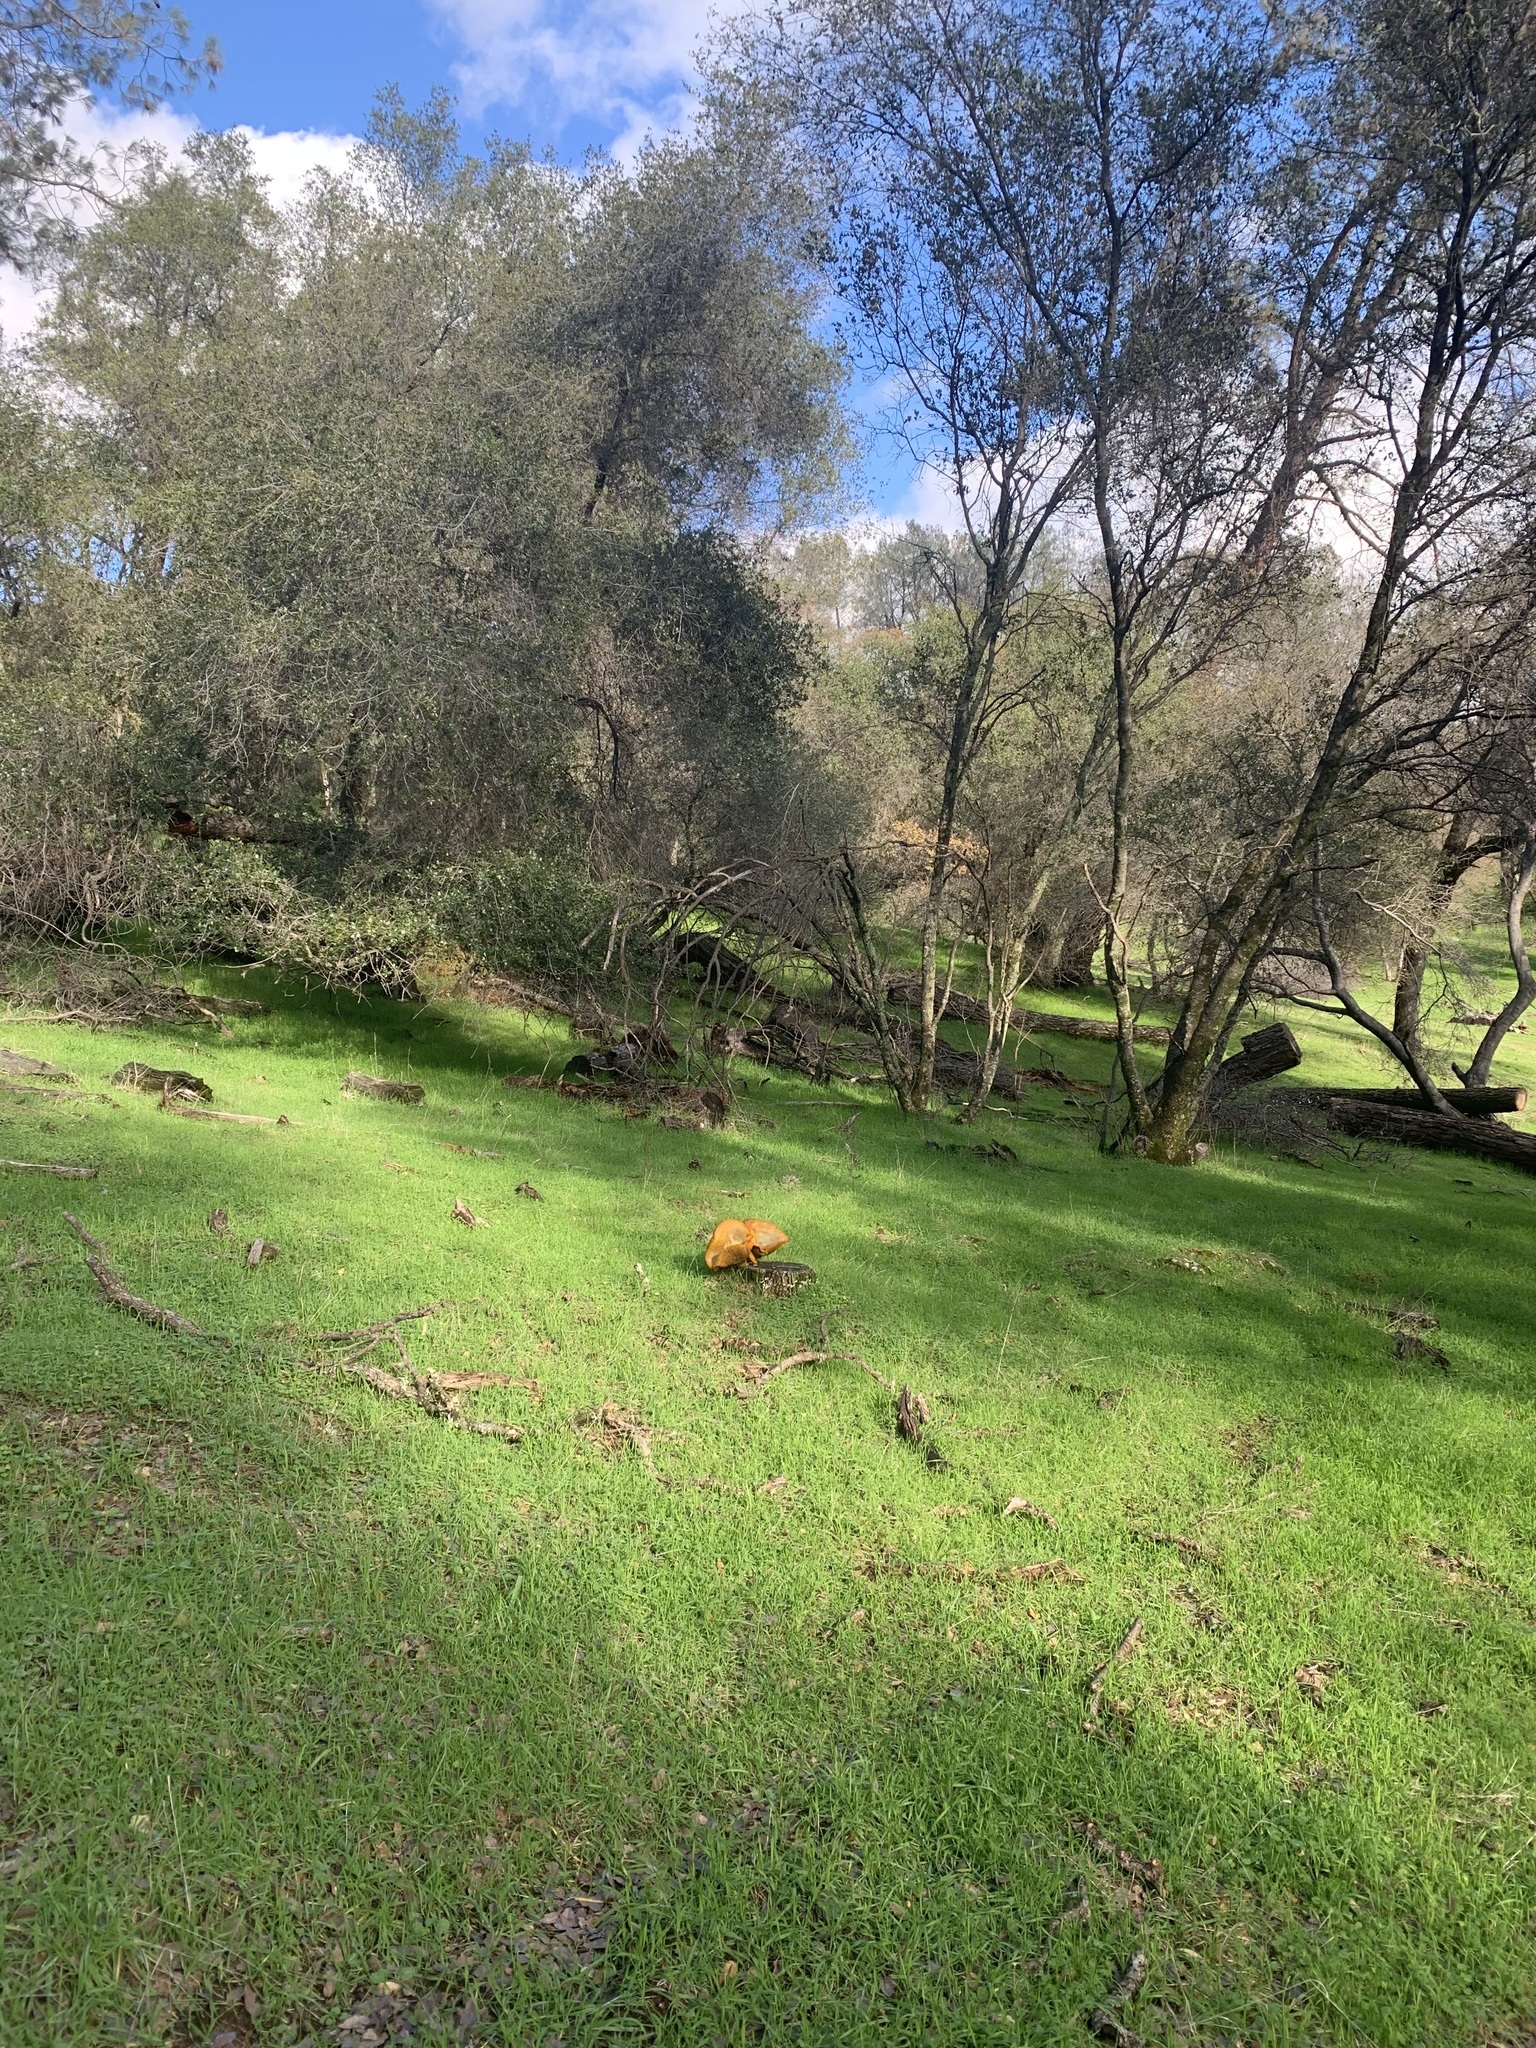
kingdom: Fungi
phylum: Basidiomycota
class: Agaricomycetes
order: Agaricales
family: Omphalotaceae
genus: Omphalotus
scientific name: Omphalotus olivascens
